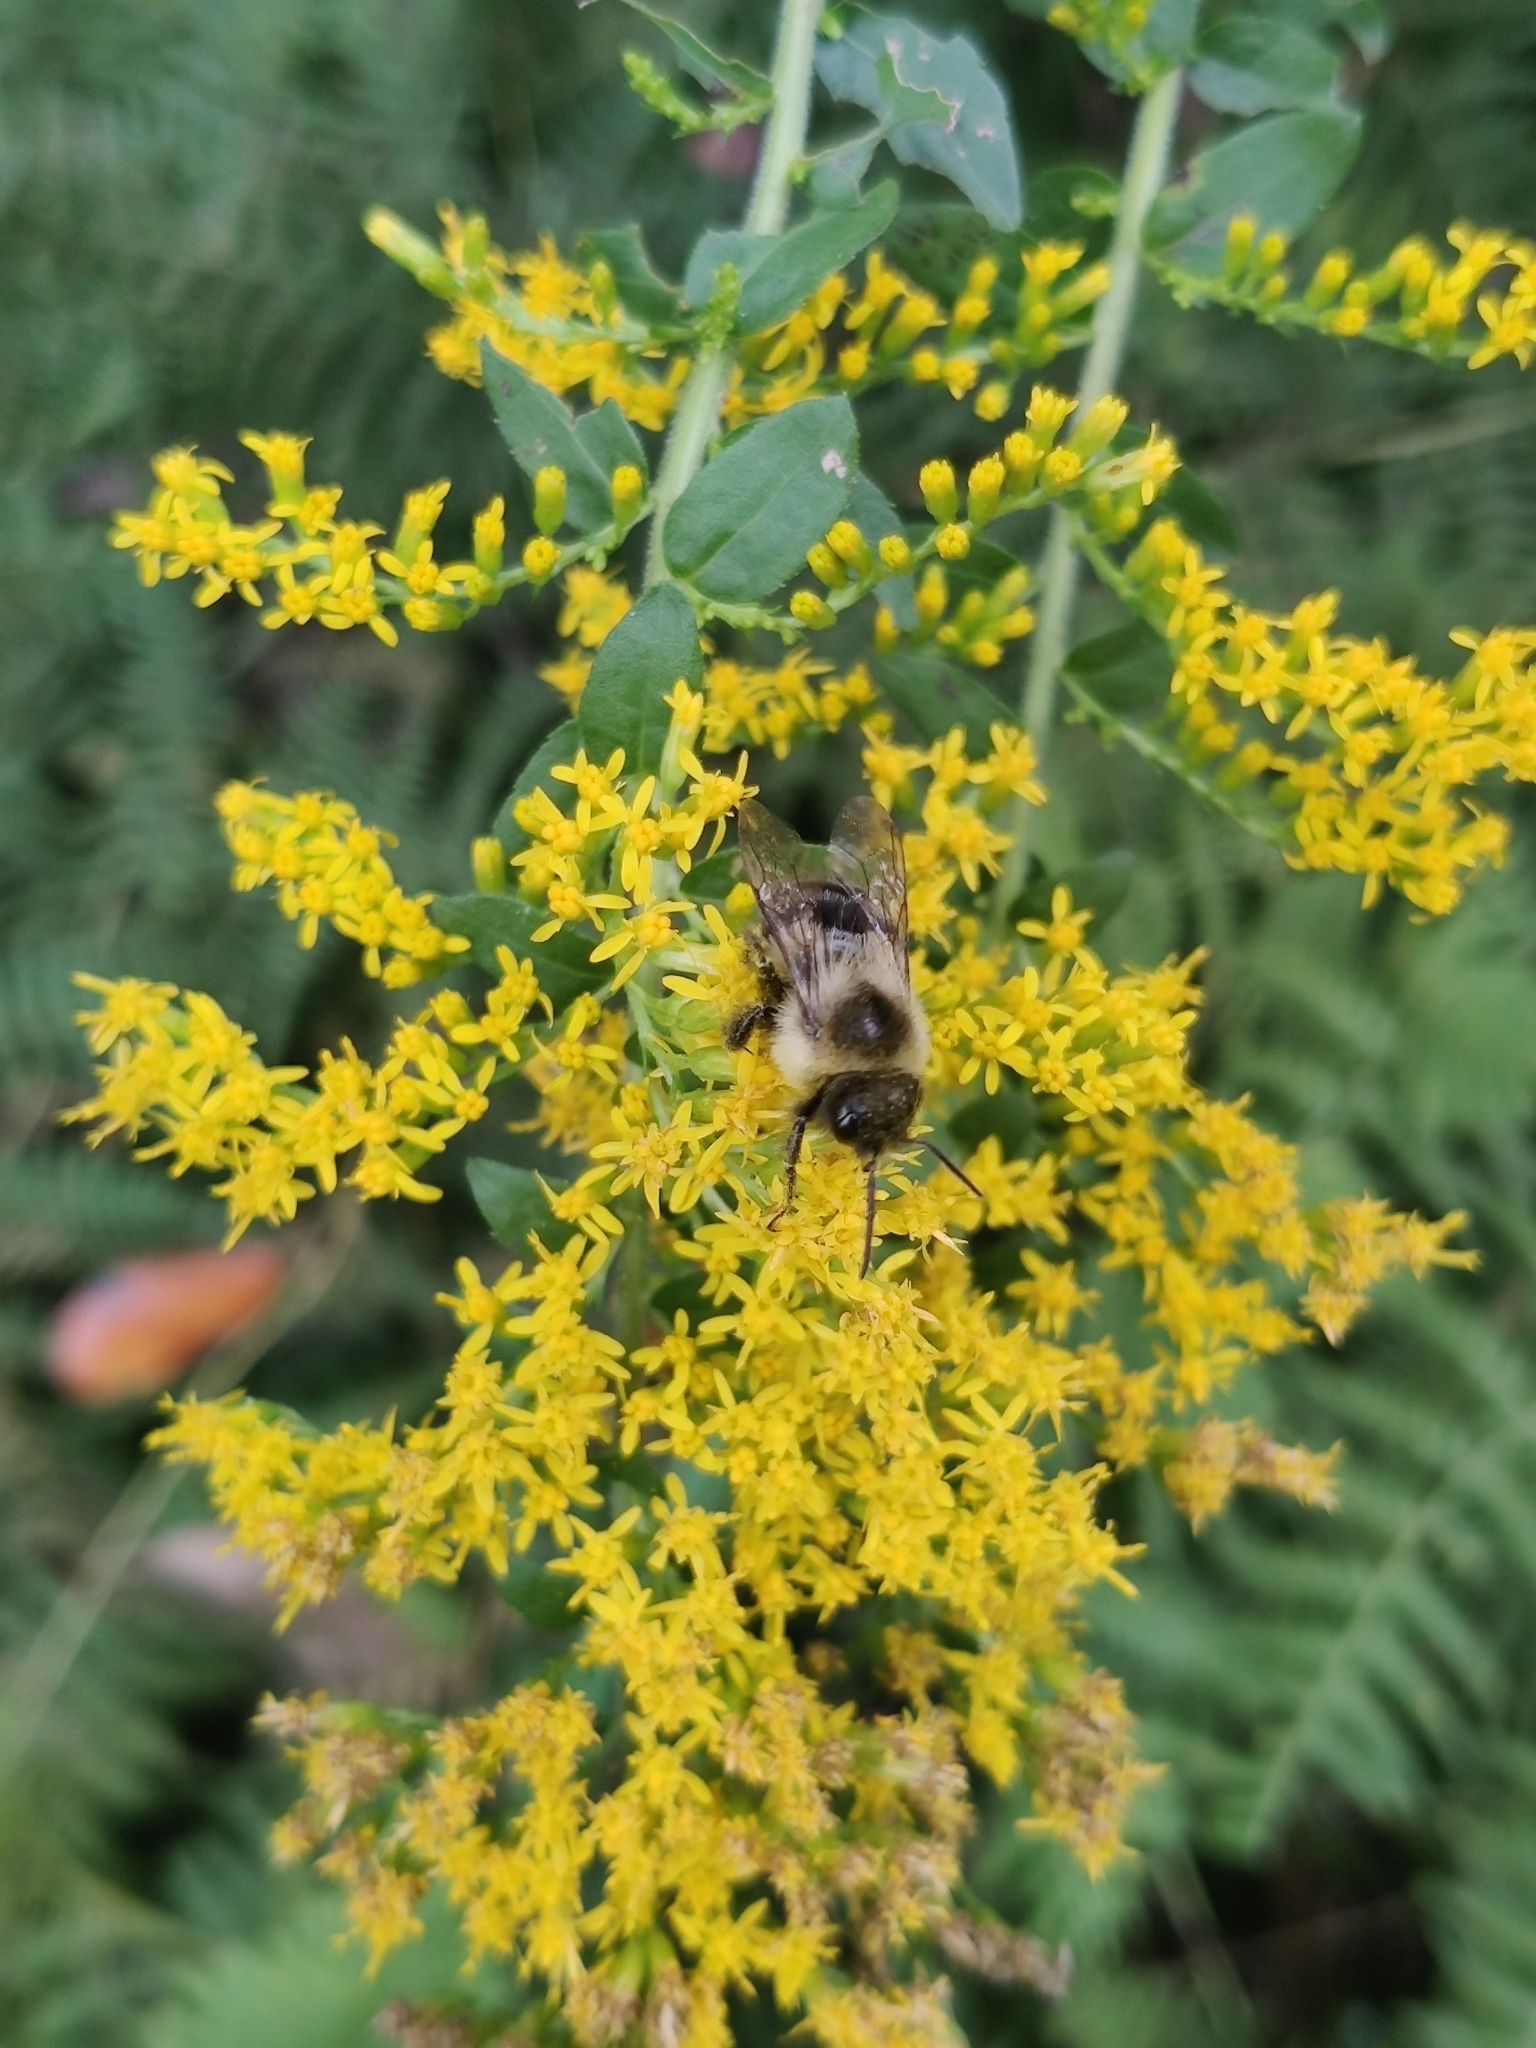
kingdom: Animalia
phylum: Arthropoda
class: Insecta
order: Hymenoptera
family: Apidae
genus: Bombus
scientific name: Bombus impatiens
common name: Common eastern bumble bee
